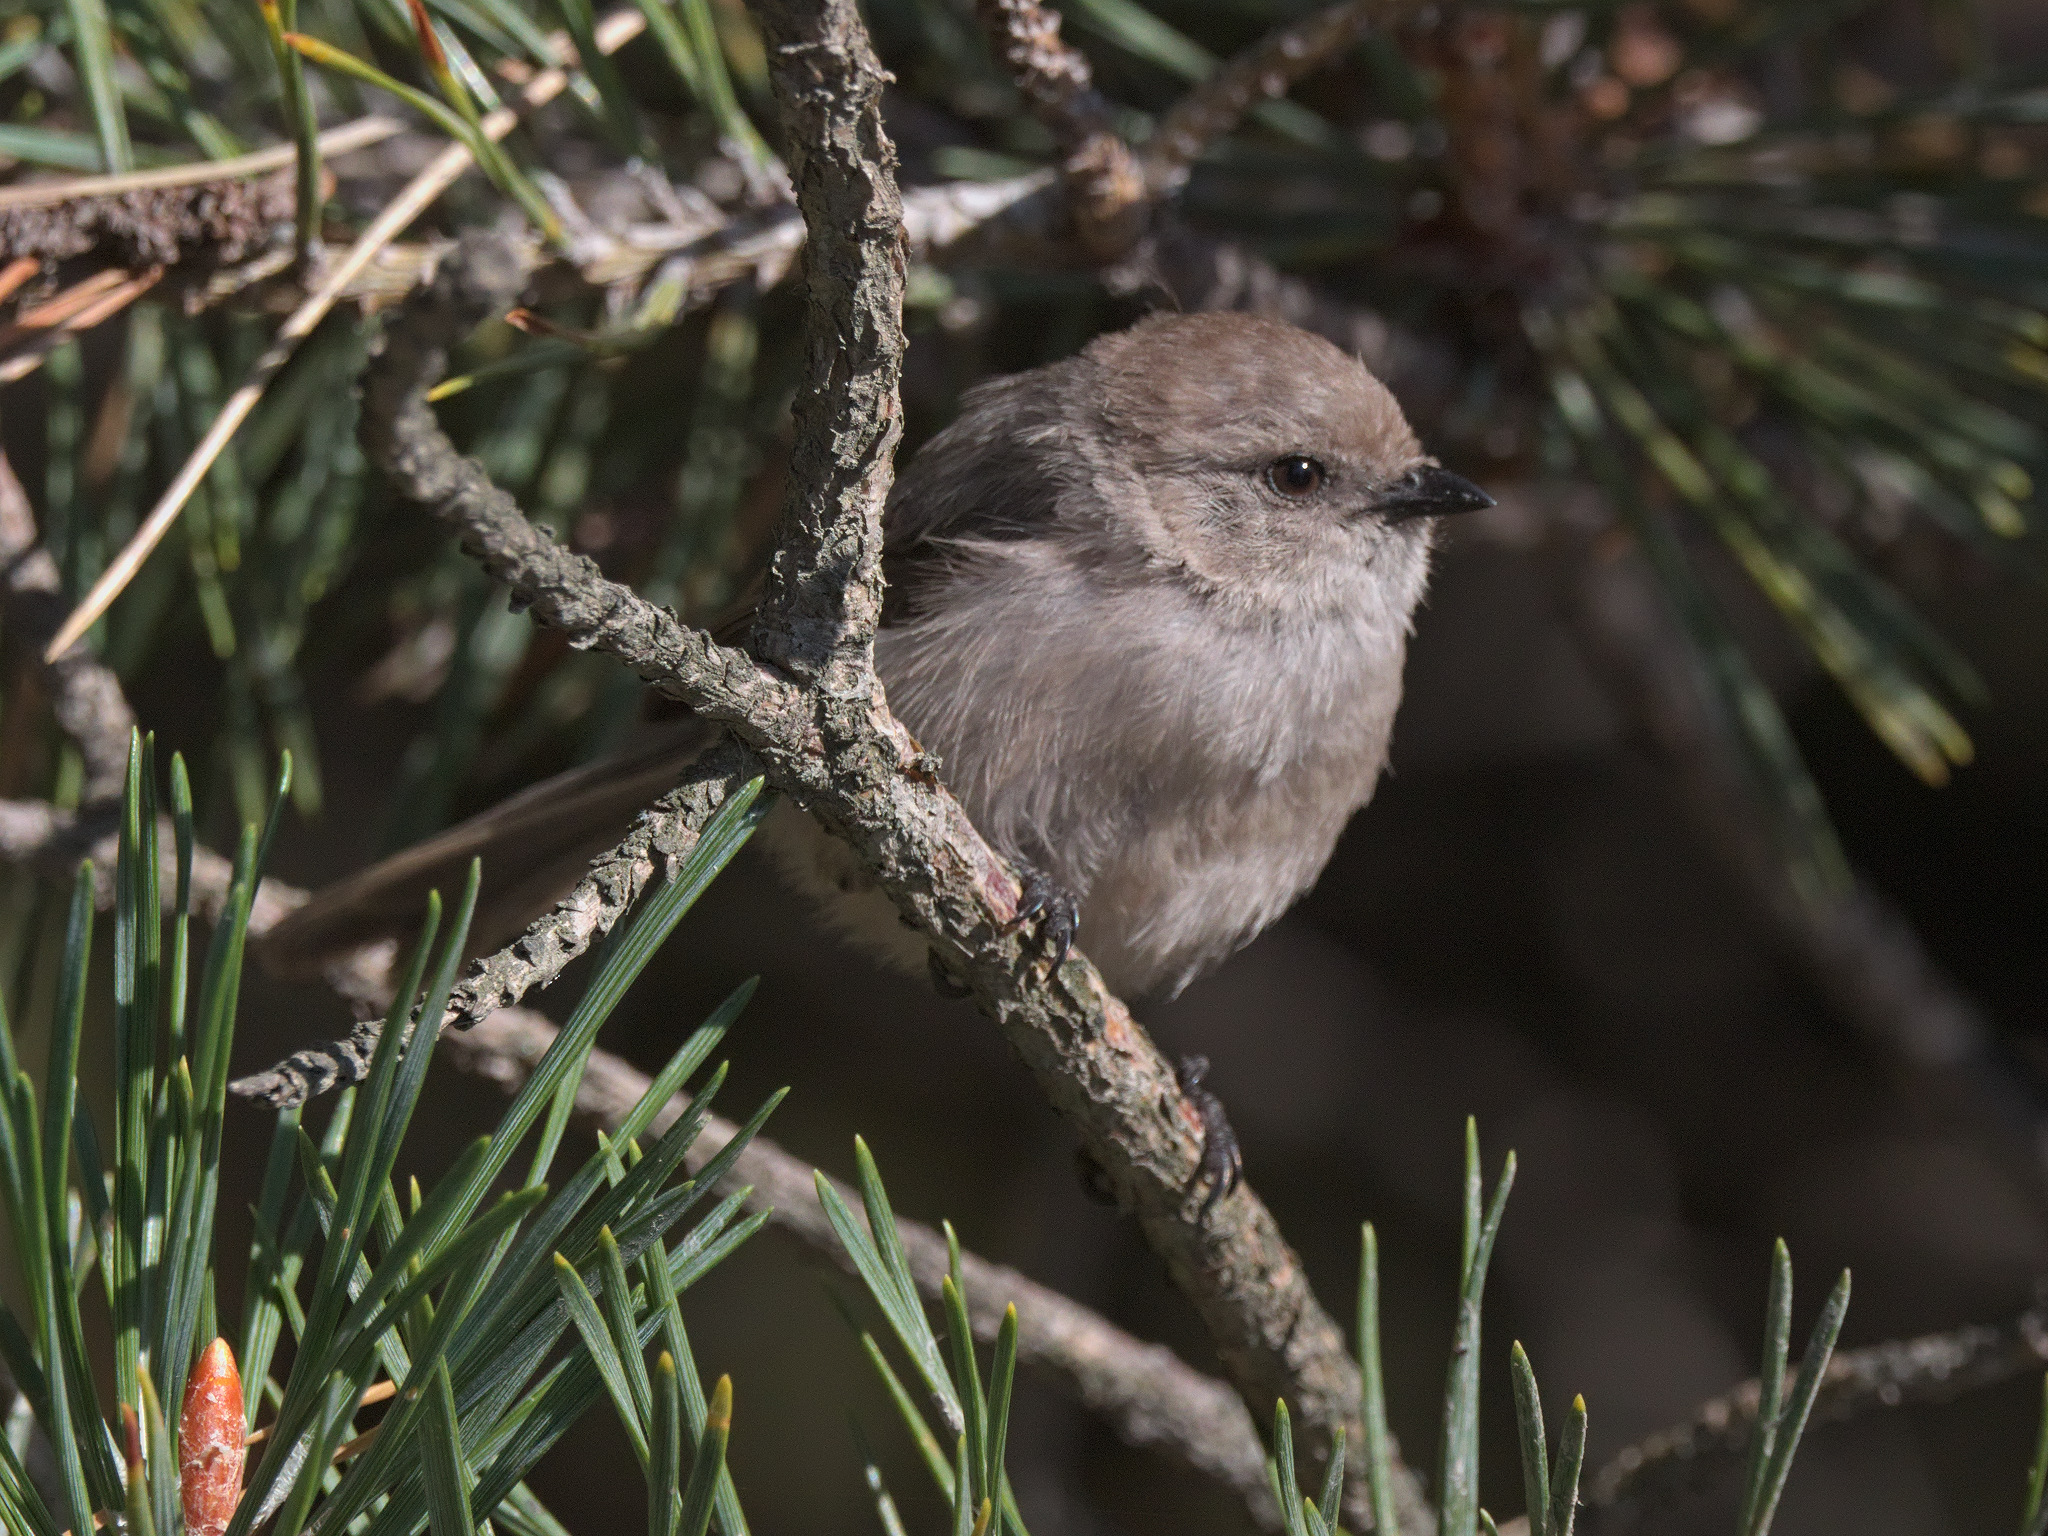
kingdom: Animalia
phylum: Chordata
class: Aves
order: Passeriformes
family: Aegithalidae
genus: Psaltriparus
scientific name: Psaltriparus minimus
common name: American bushtit
